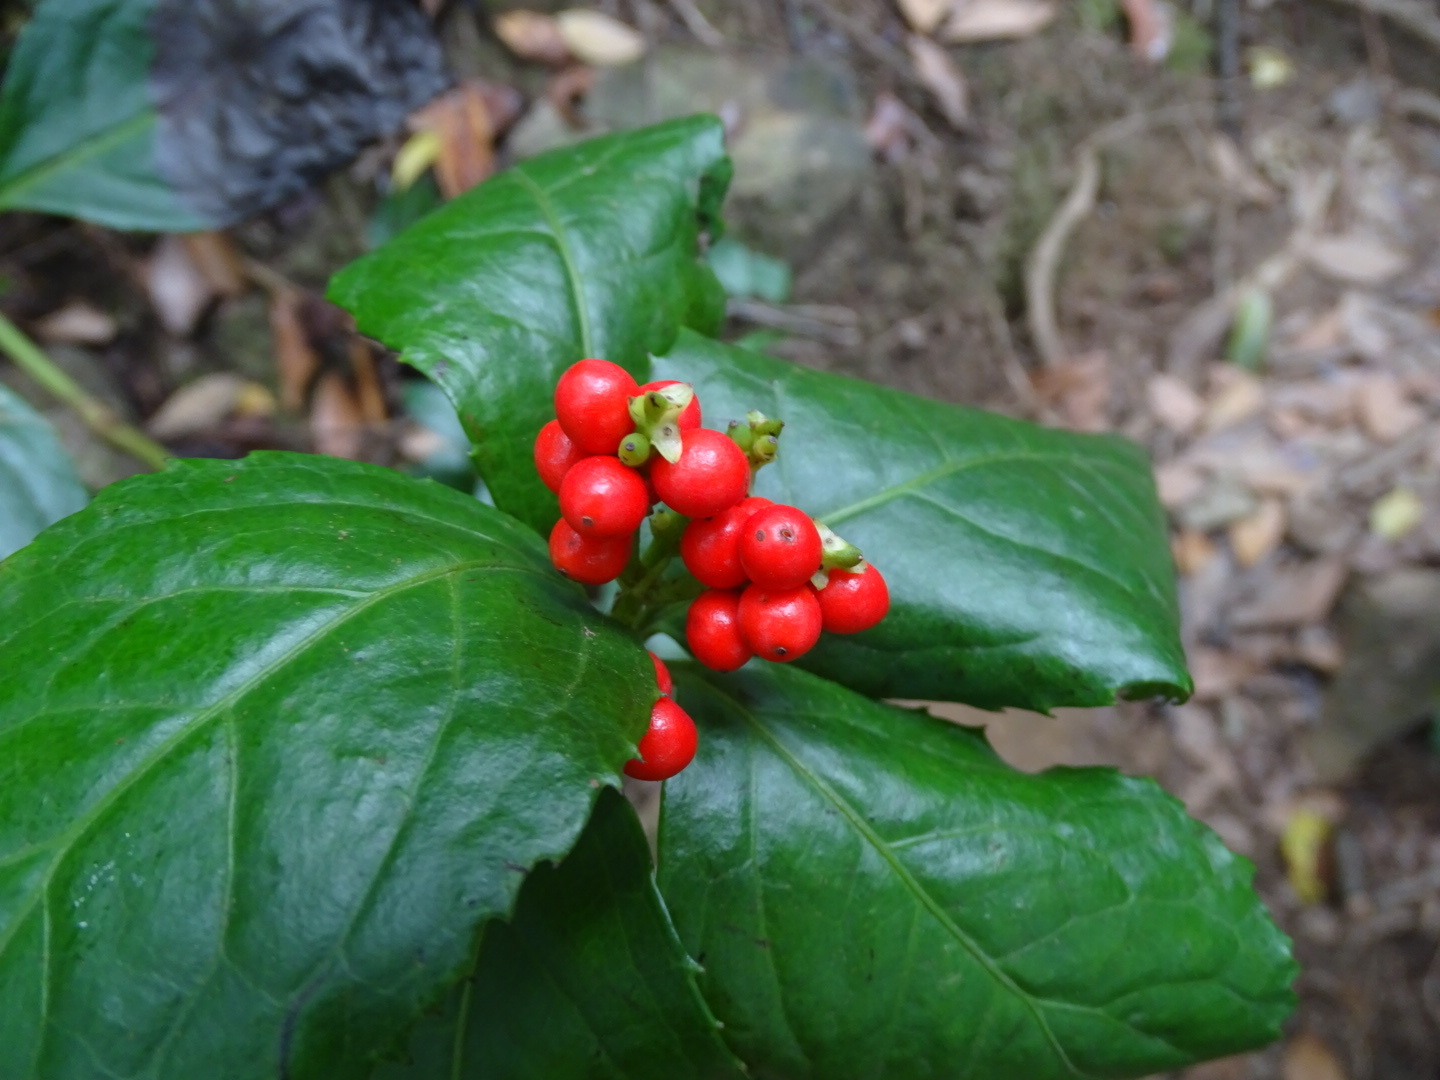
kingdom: Plantae
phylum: Tracheophyta
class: Magnoliopsida
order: Chloranthales
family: Chloranthaceae
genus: Sarcandra
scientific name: Sarcandra glabra
